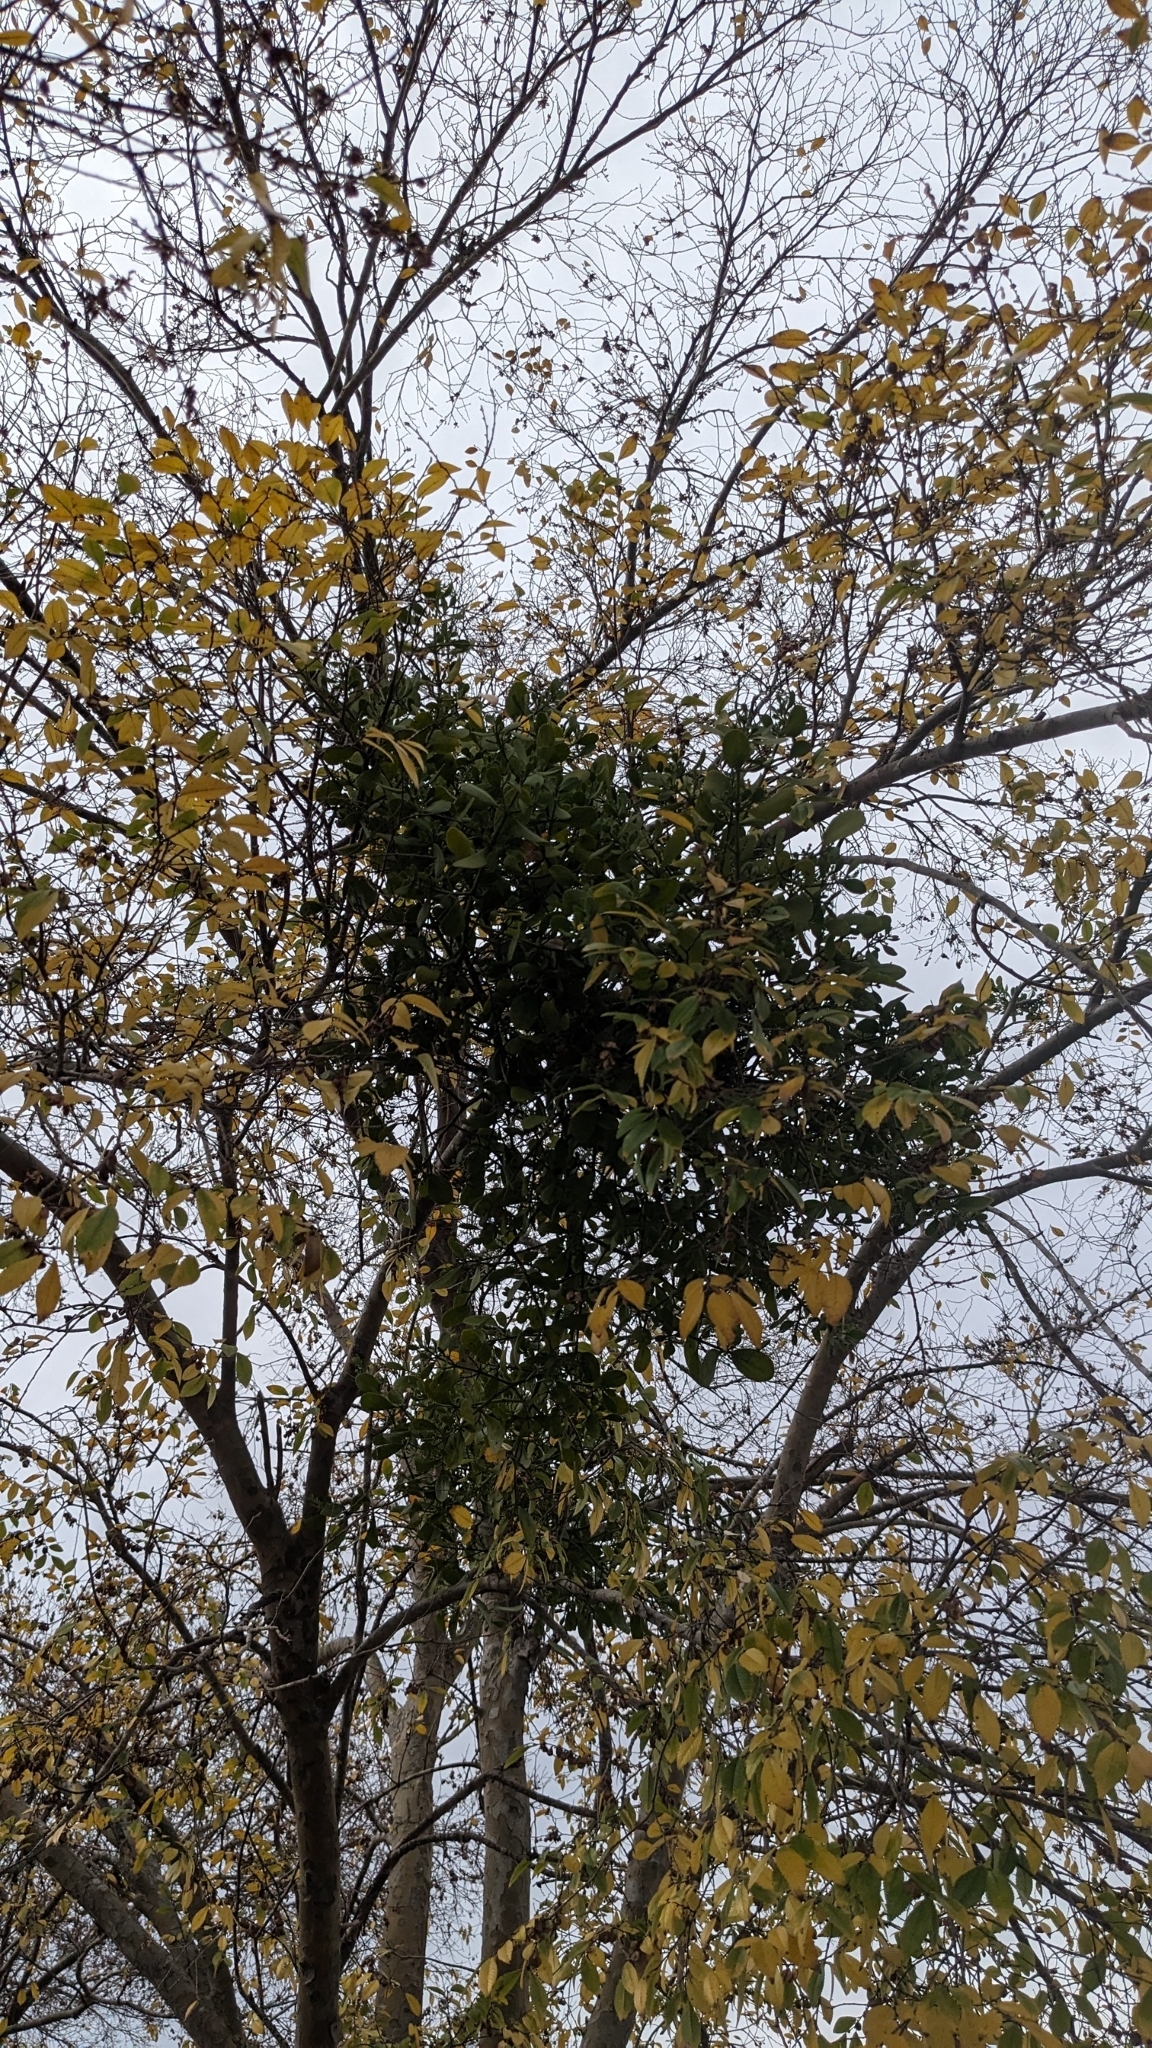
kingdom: Plantae
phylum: Tracheophyta
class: Magnoliopsida
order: Santalales
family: Viscaceae
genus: Phoradendron
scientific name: Phoradendron leucarpum
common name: Pacific mistletoe
